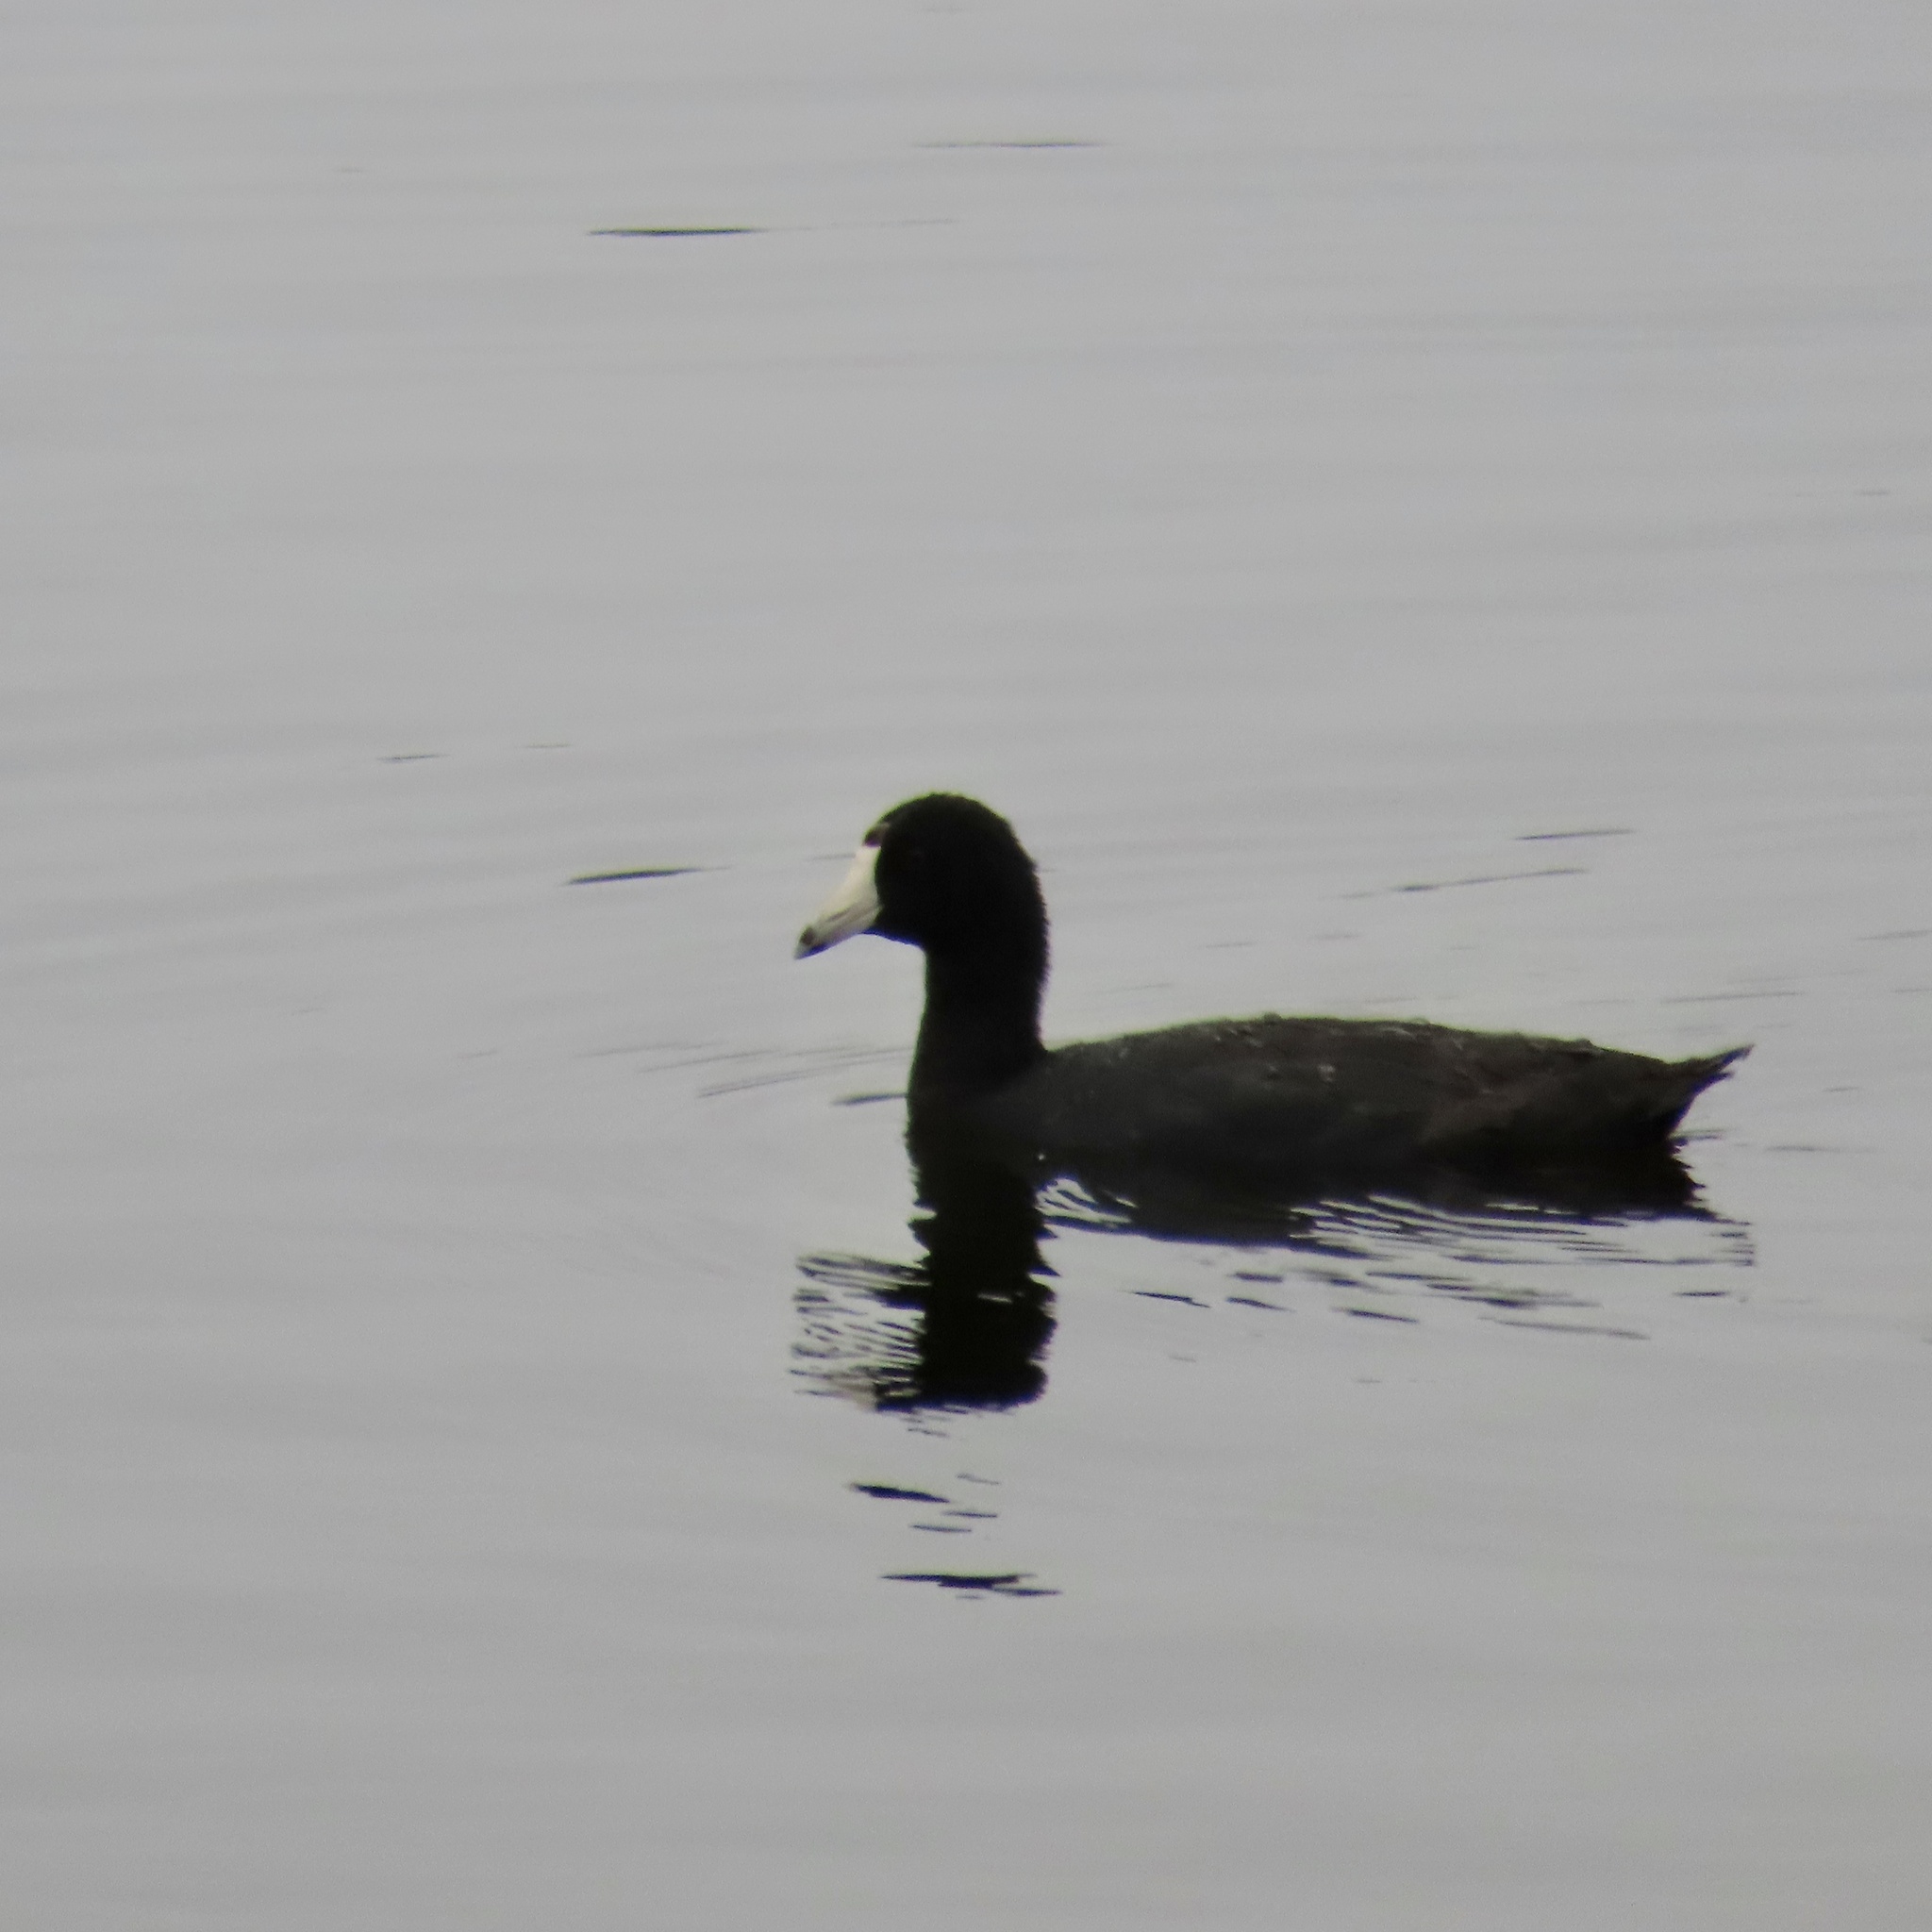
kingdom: Animalia
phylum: Chordata
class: Aves
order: Gruiformes
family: Rallidae
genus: Fulica
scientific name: Fulica americana
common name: American coot
